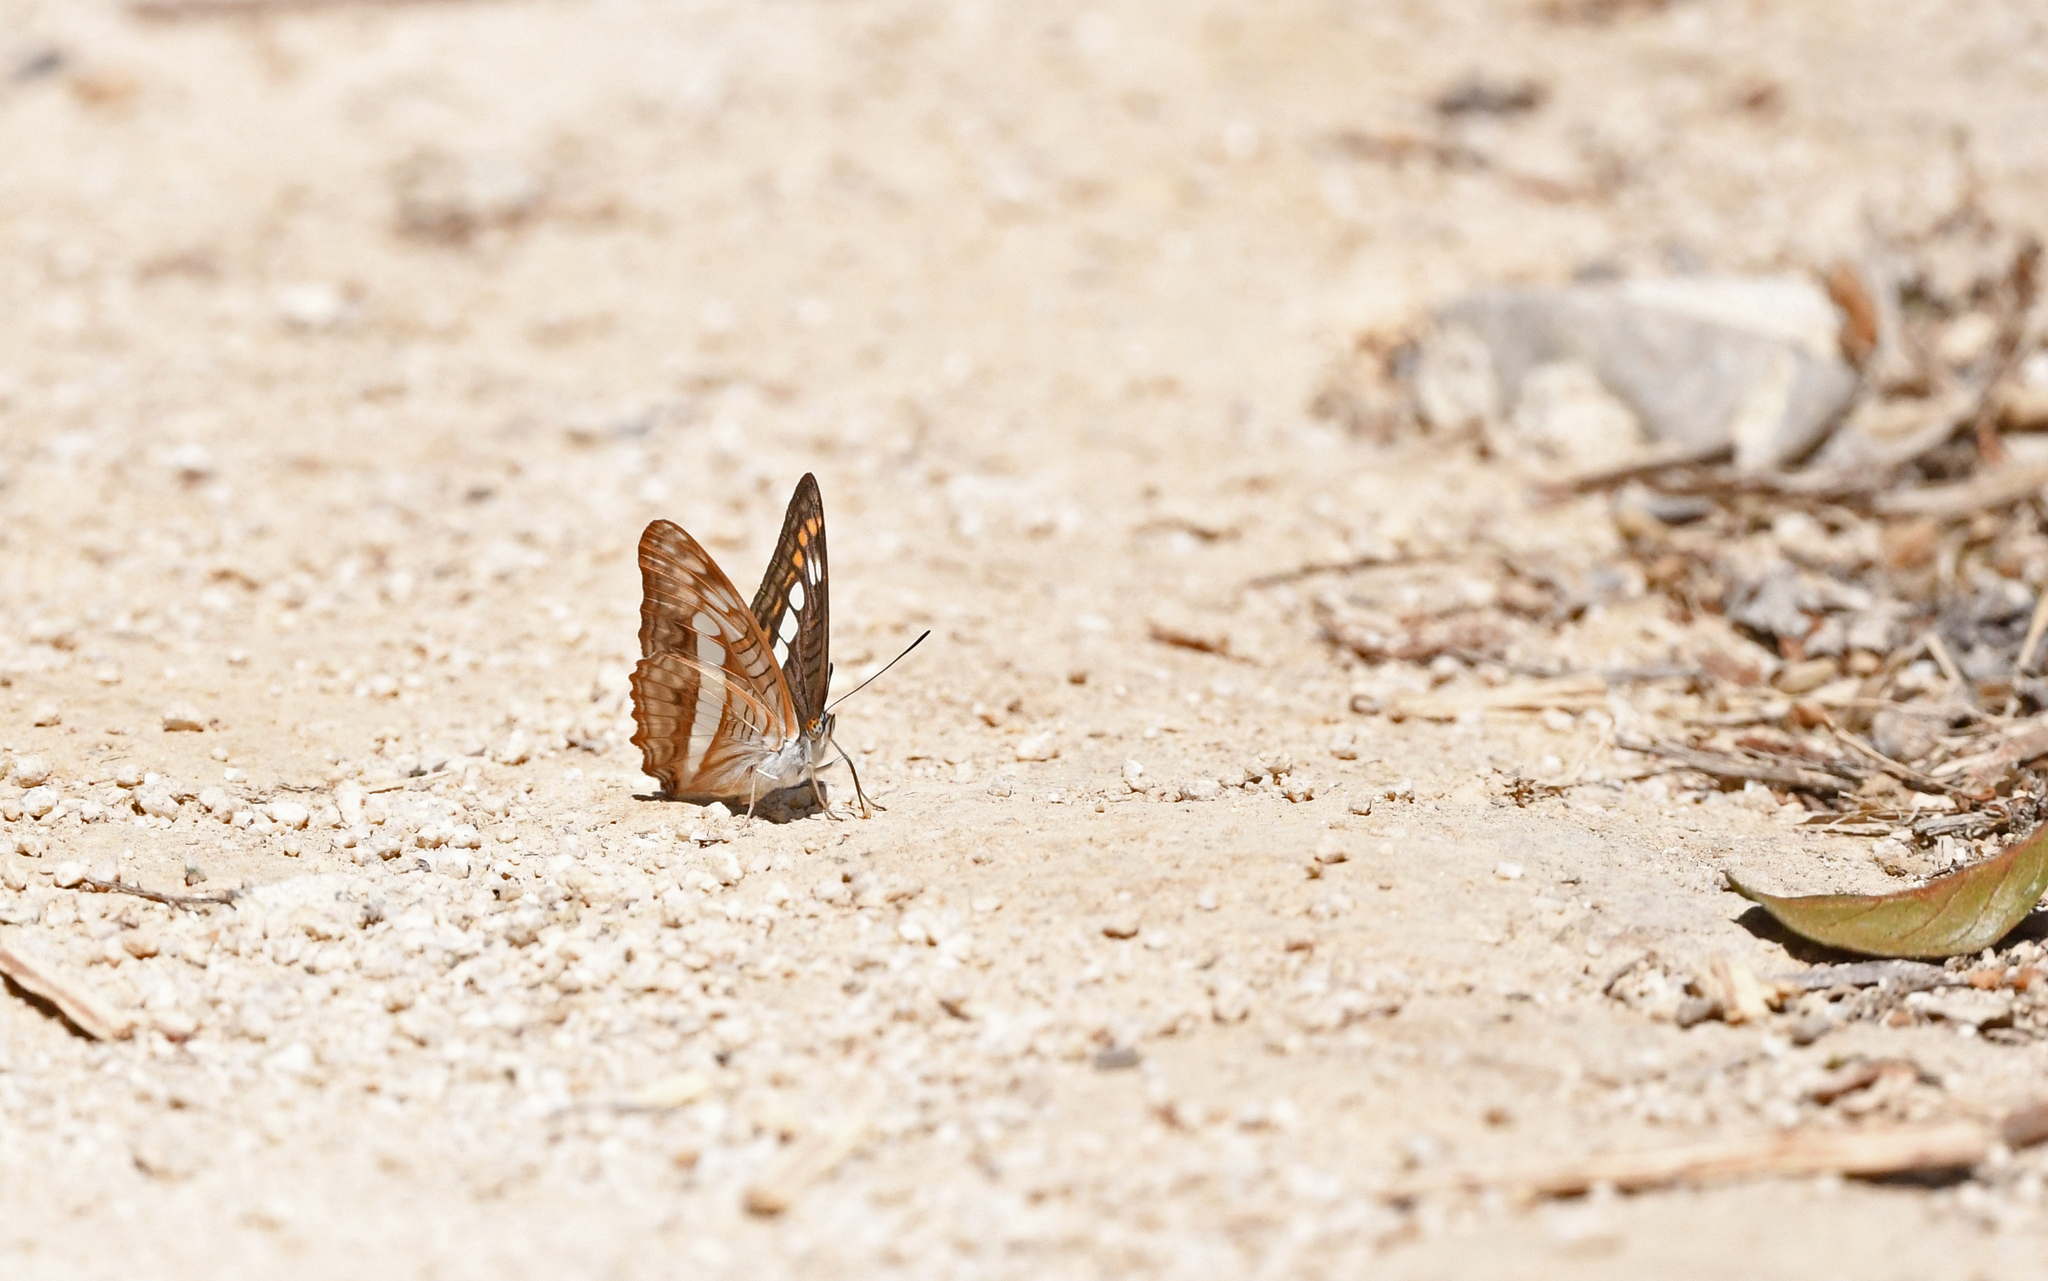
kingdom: Animalia
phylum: Arthropoda
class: Insecta
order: Lepidoptera
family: Nymphalidae
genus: Limenitis
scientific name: Limenitis alala
